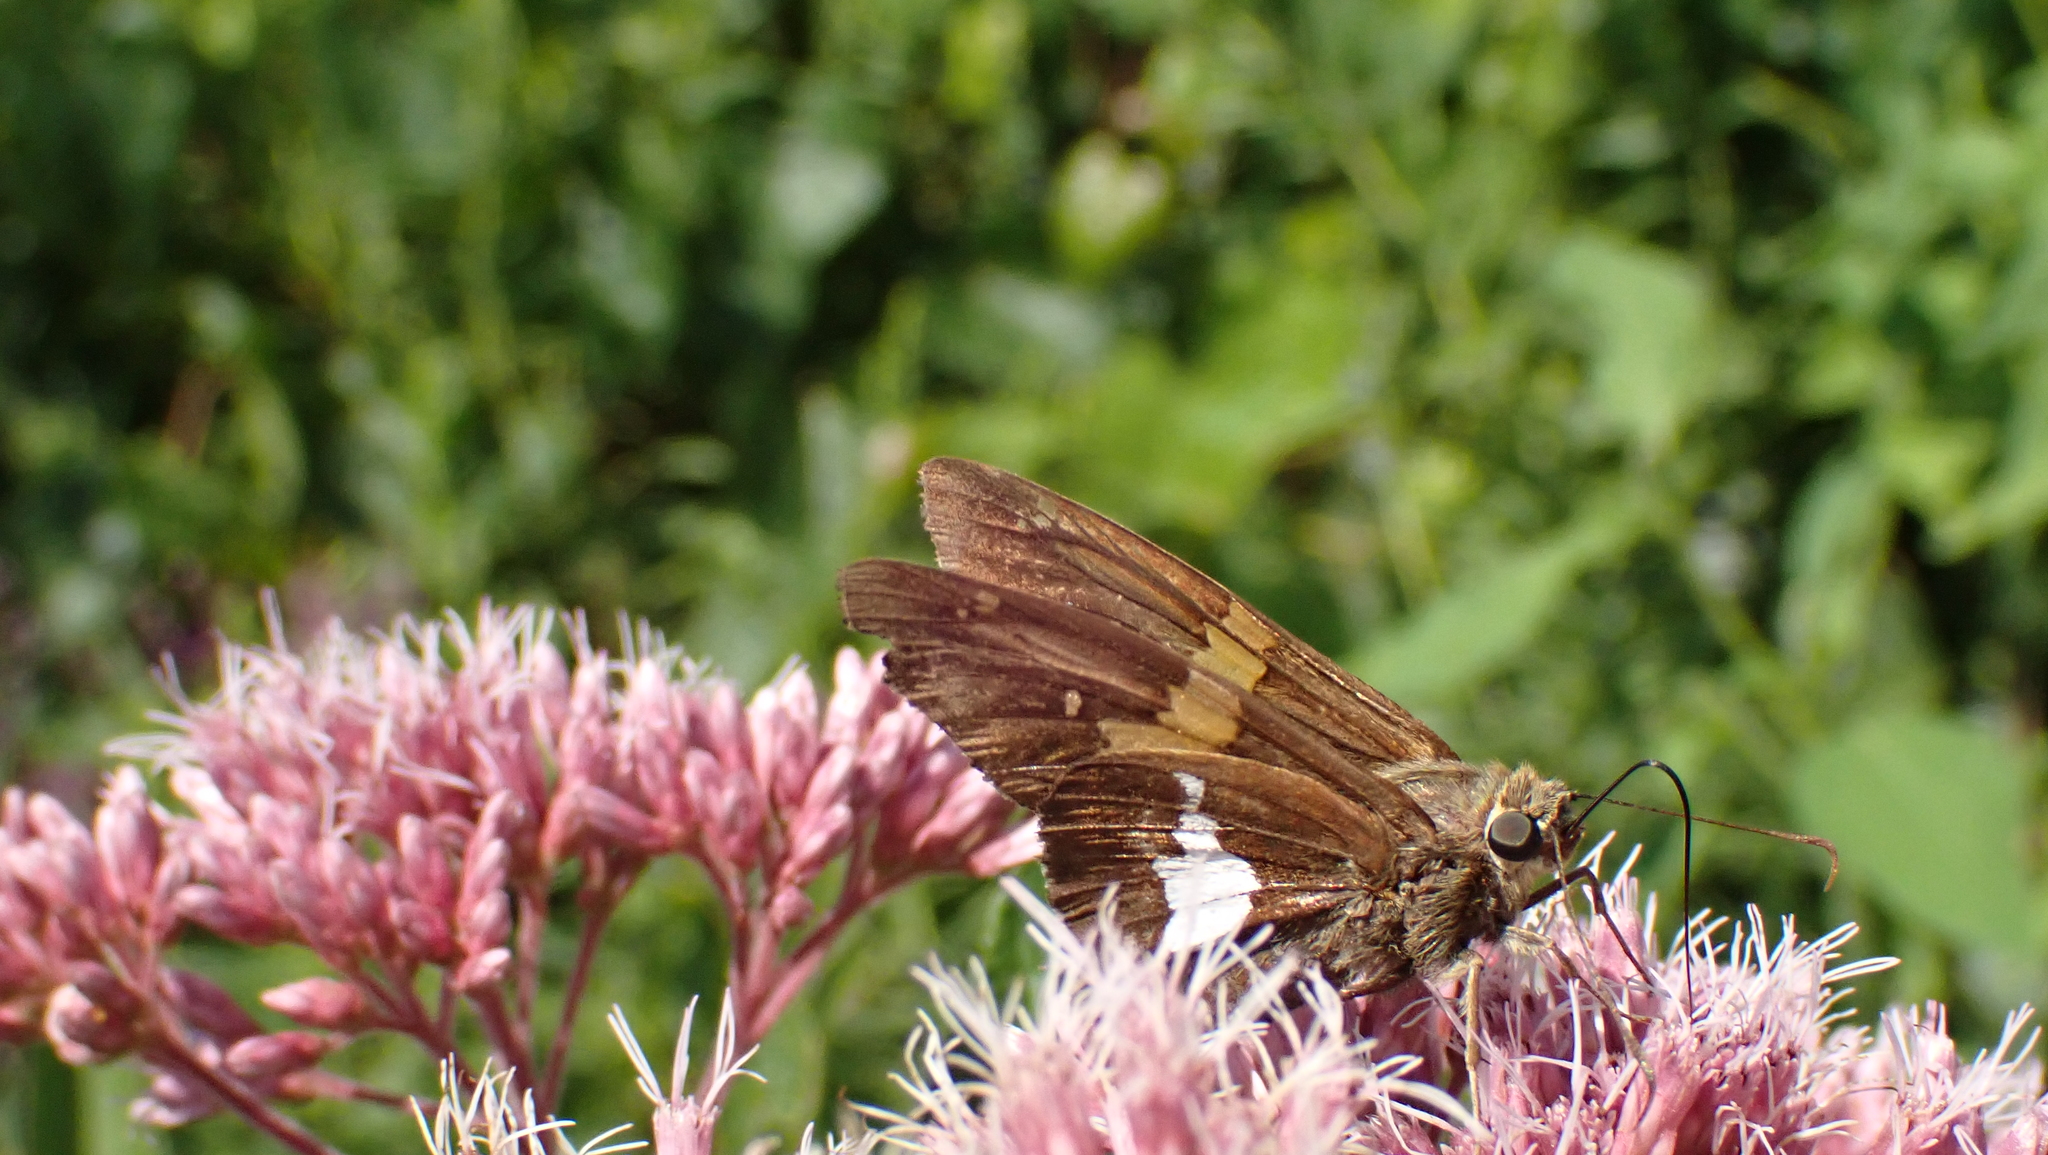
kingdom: Animalia
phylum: Arthropoda
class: Insecta
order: Lepidoptera
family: Hesperiidae
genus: Epargyreus
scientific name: Epargyreus clarus
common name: Silver-spotted skipper
